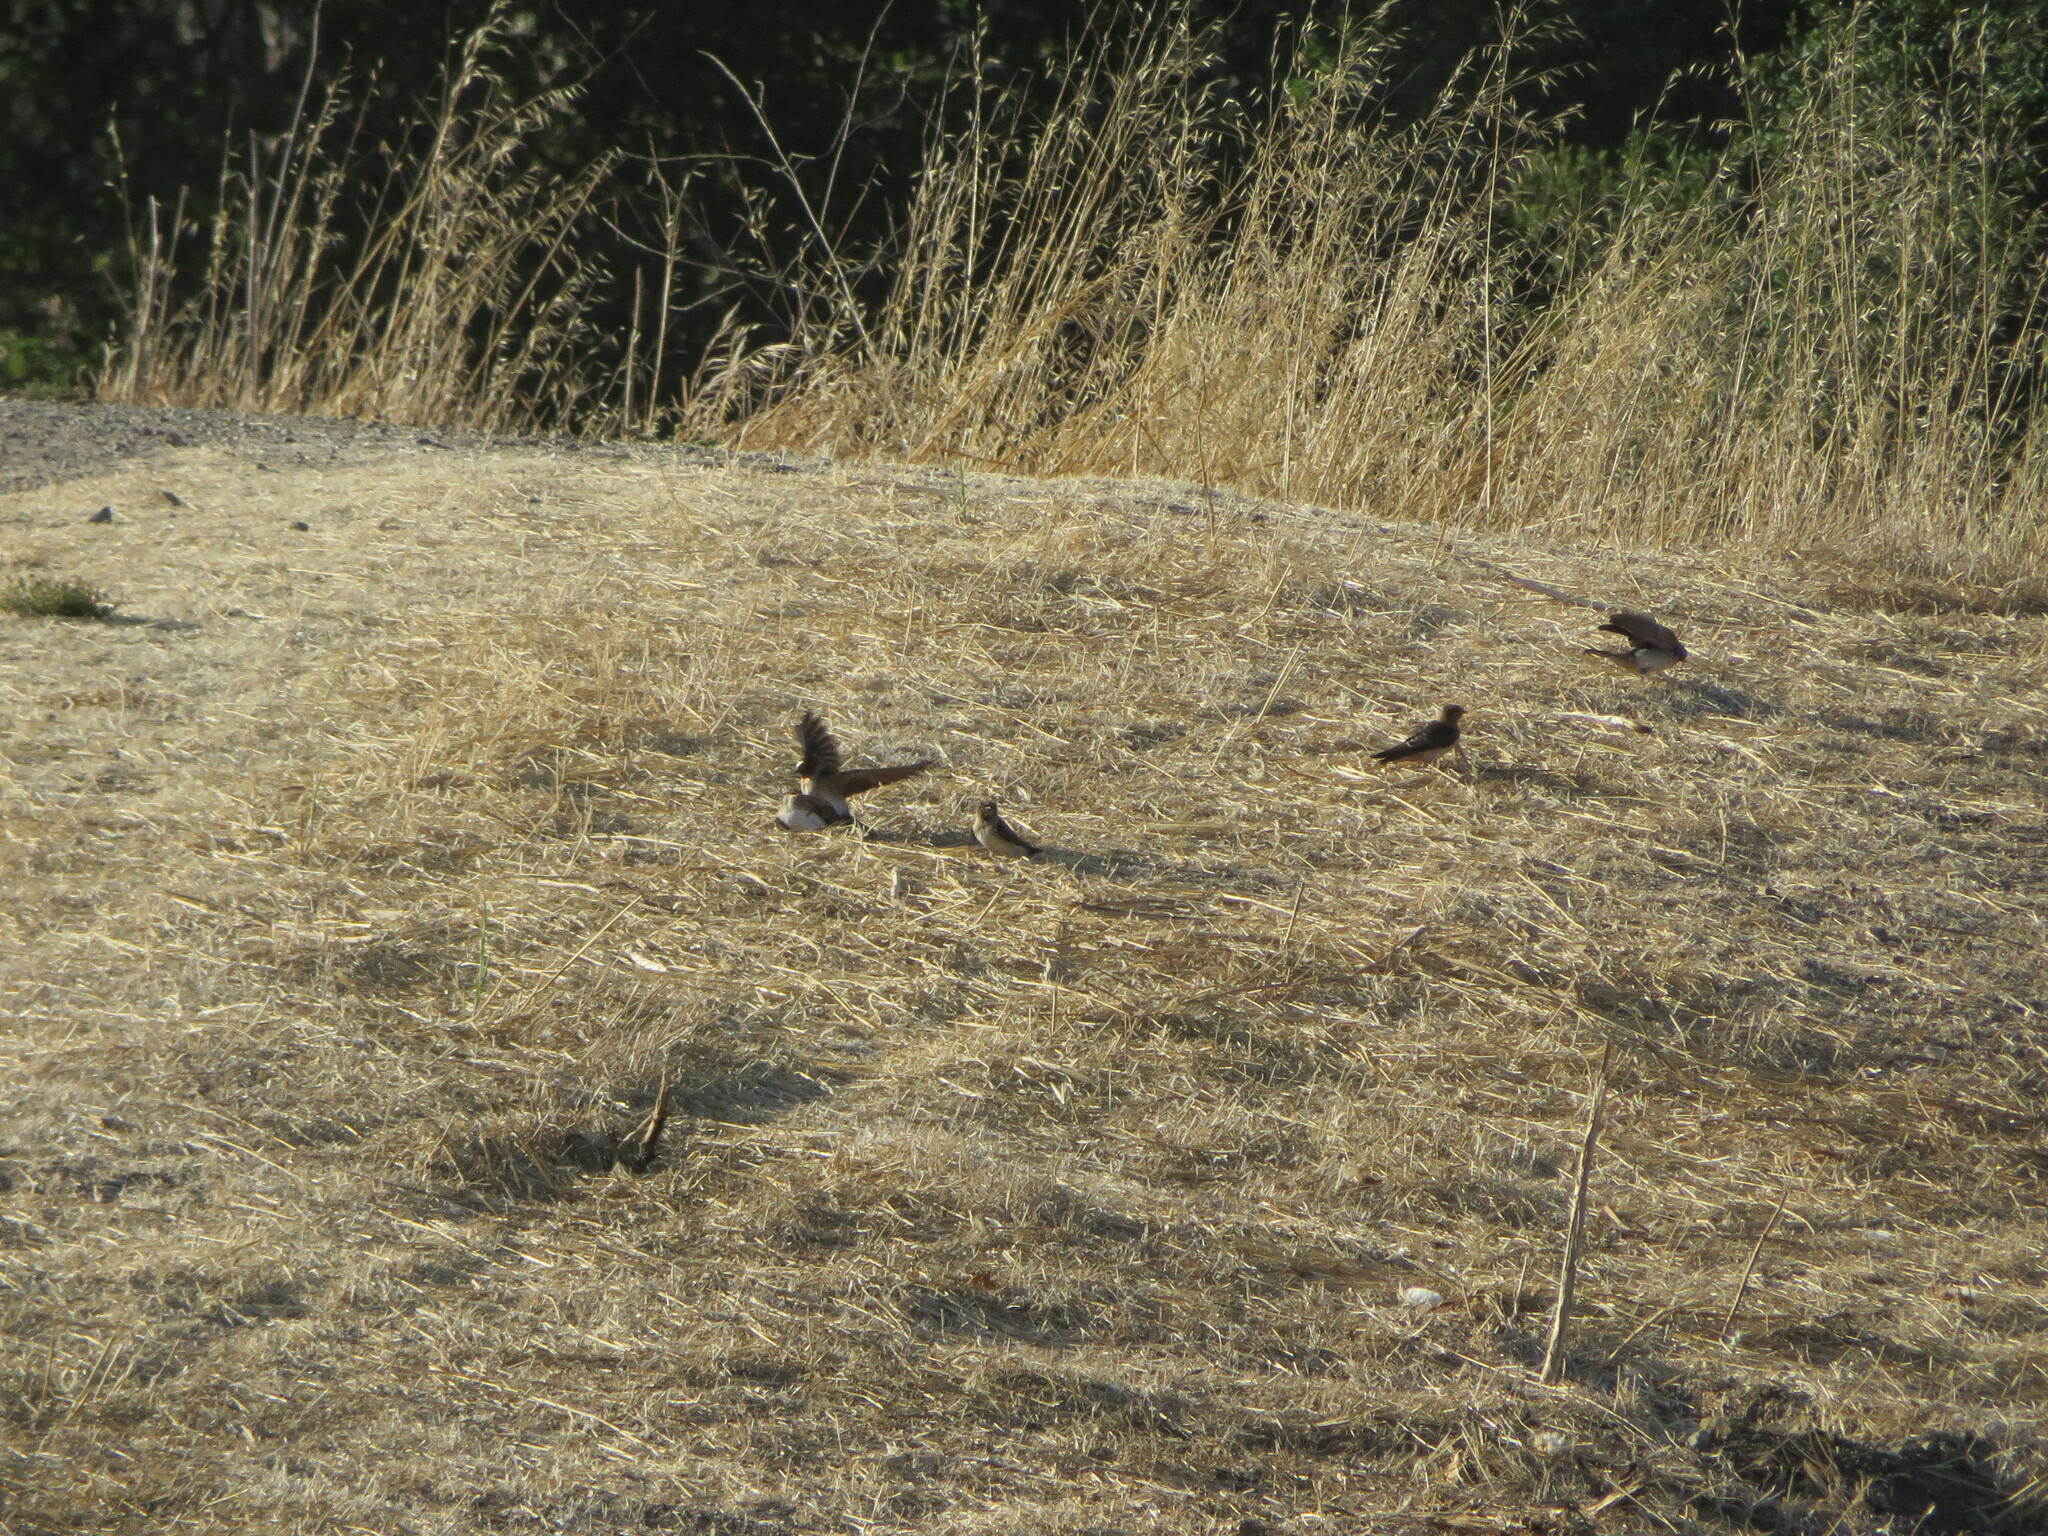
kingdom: Animalia
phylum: Chordata
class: Aves
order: Passeriformes
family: Hirundinidae
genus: Petrochelidon
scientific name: Petrochelidon pyrrhonota
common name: American cliff swallow
